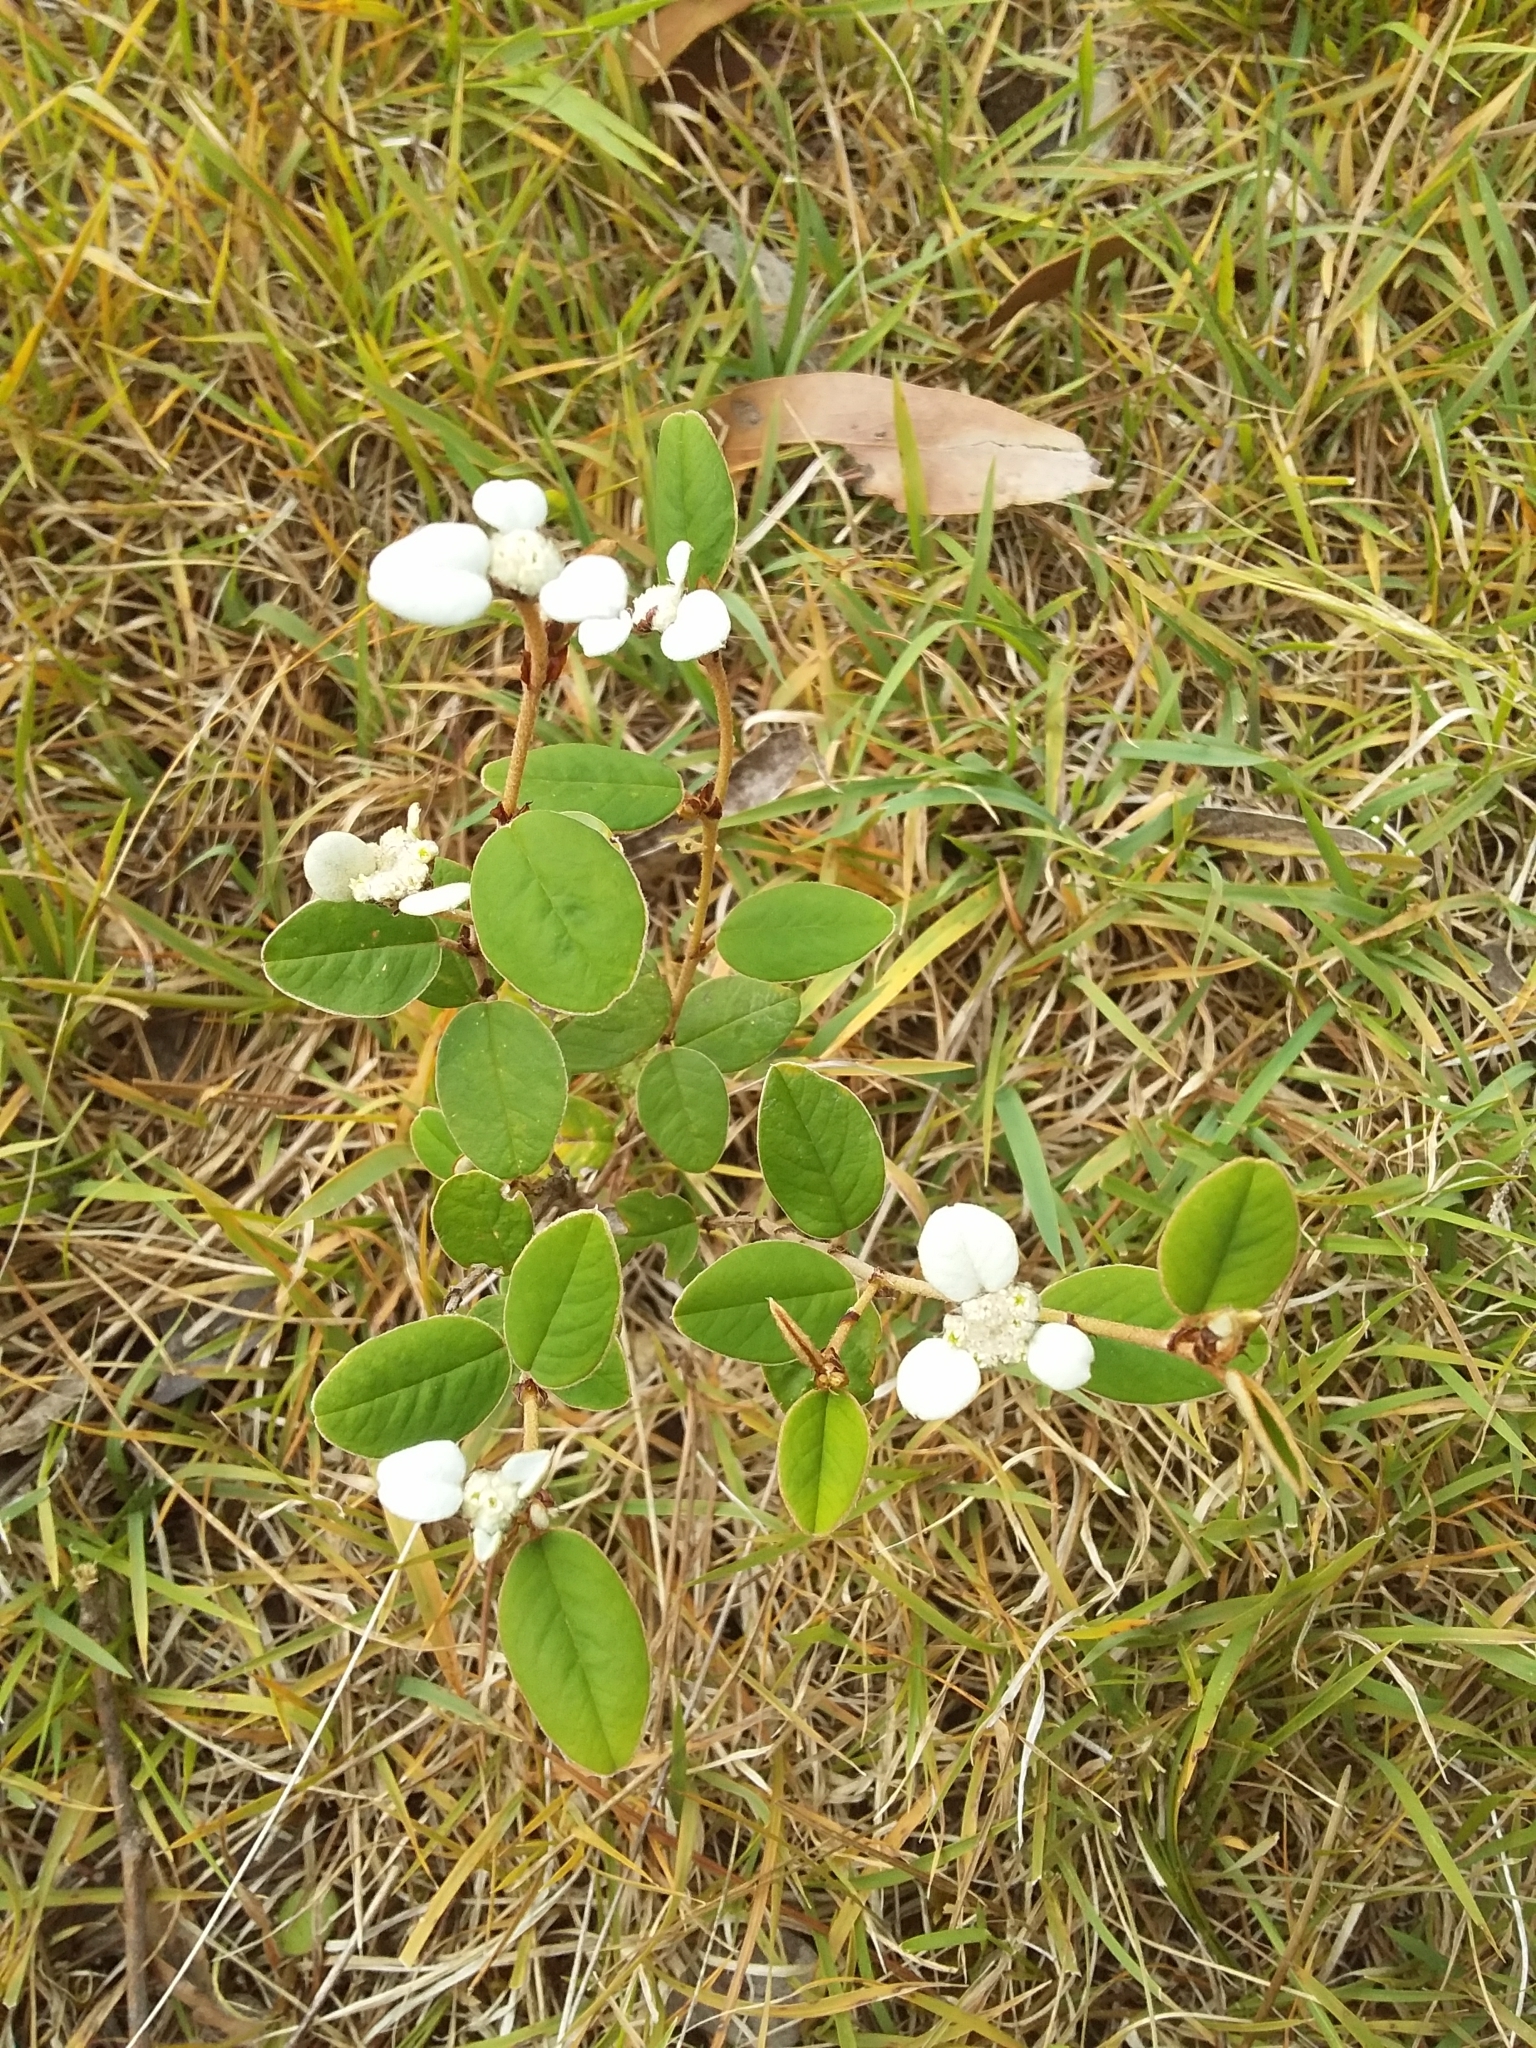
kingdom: Plantae
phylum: Tracheophyta
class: Magnoliopsida
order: Rosales
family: Rhamnaceae
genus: Spyridium
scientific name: Spyridium thymifolium
